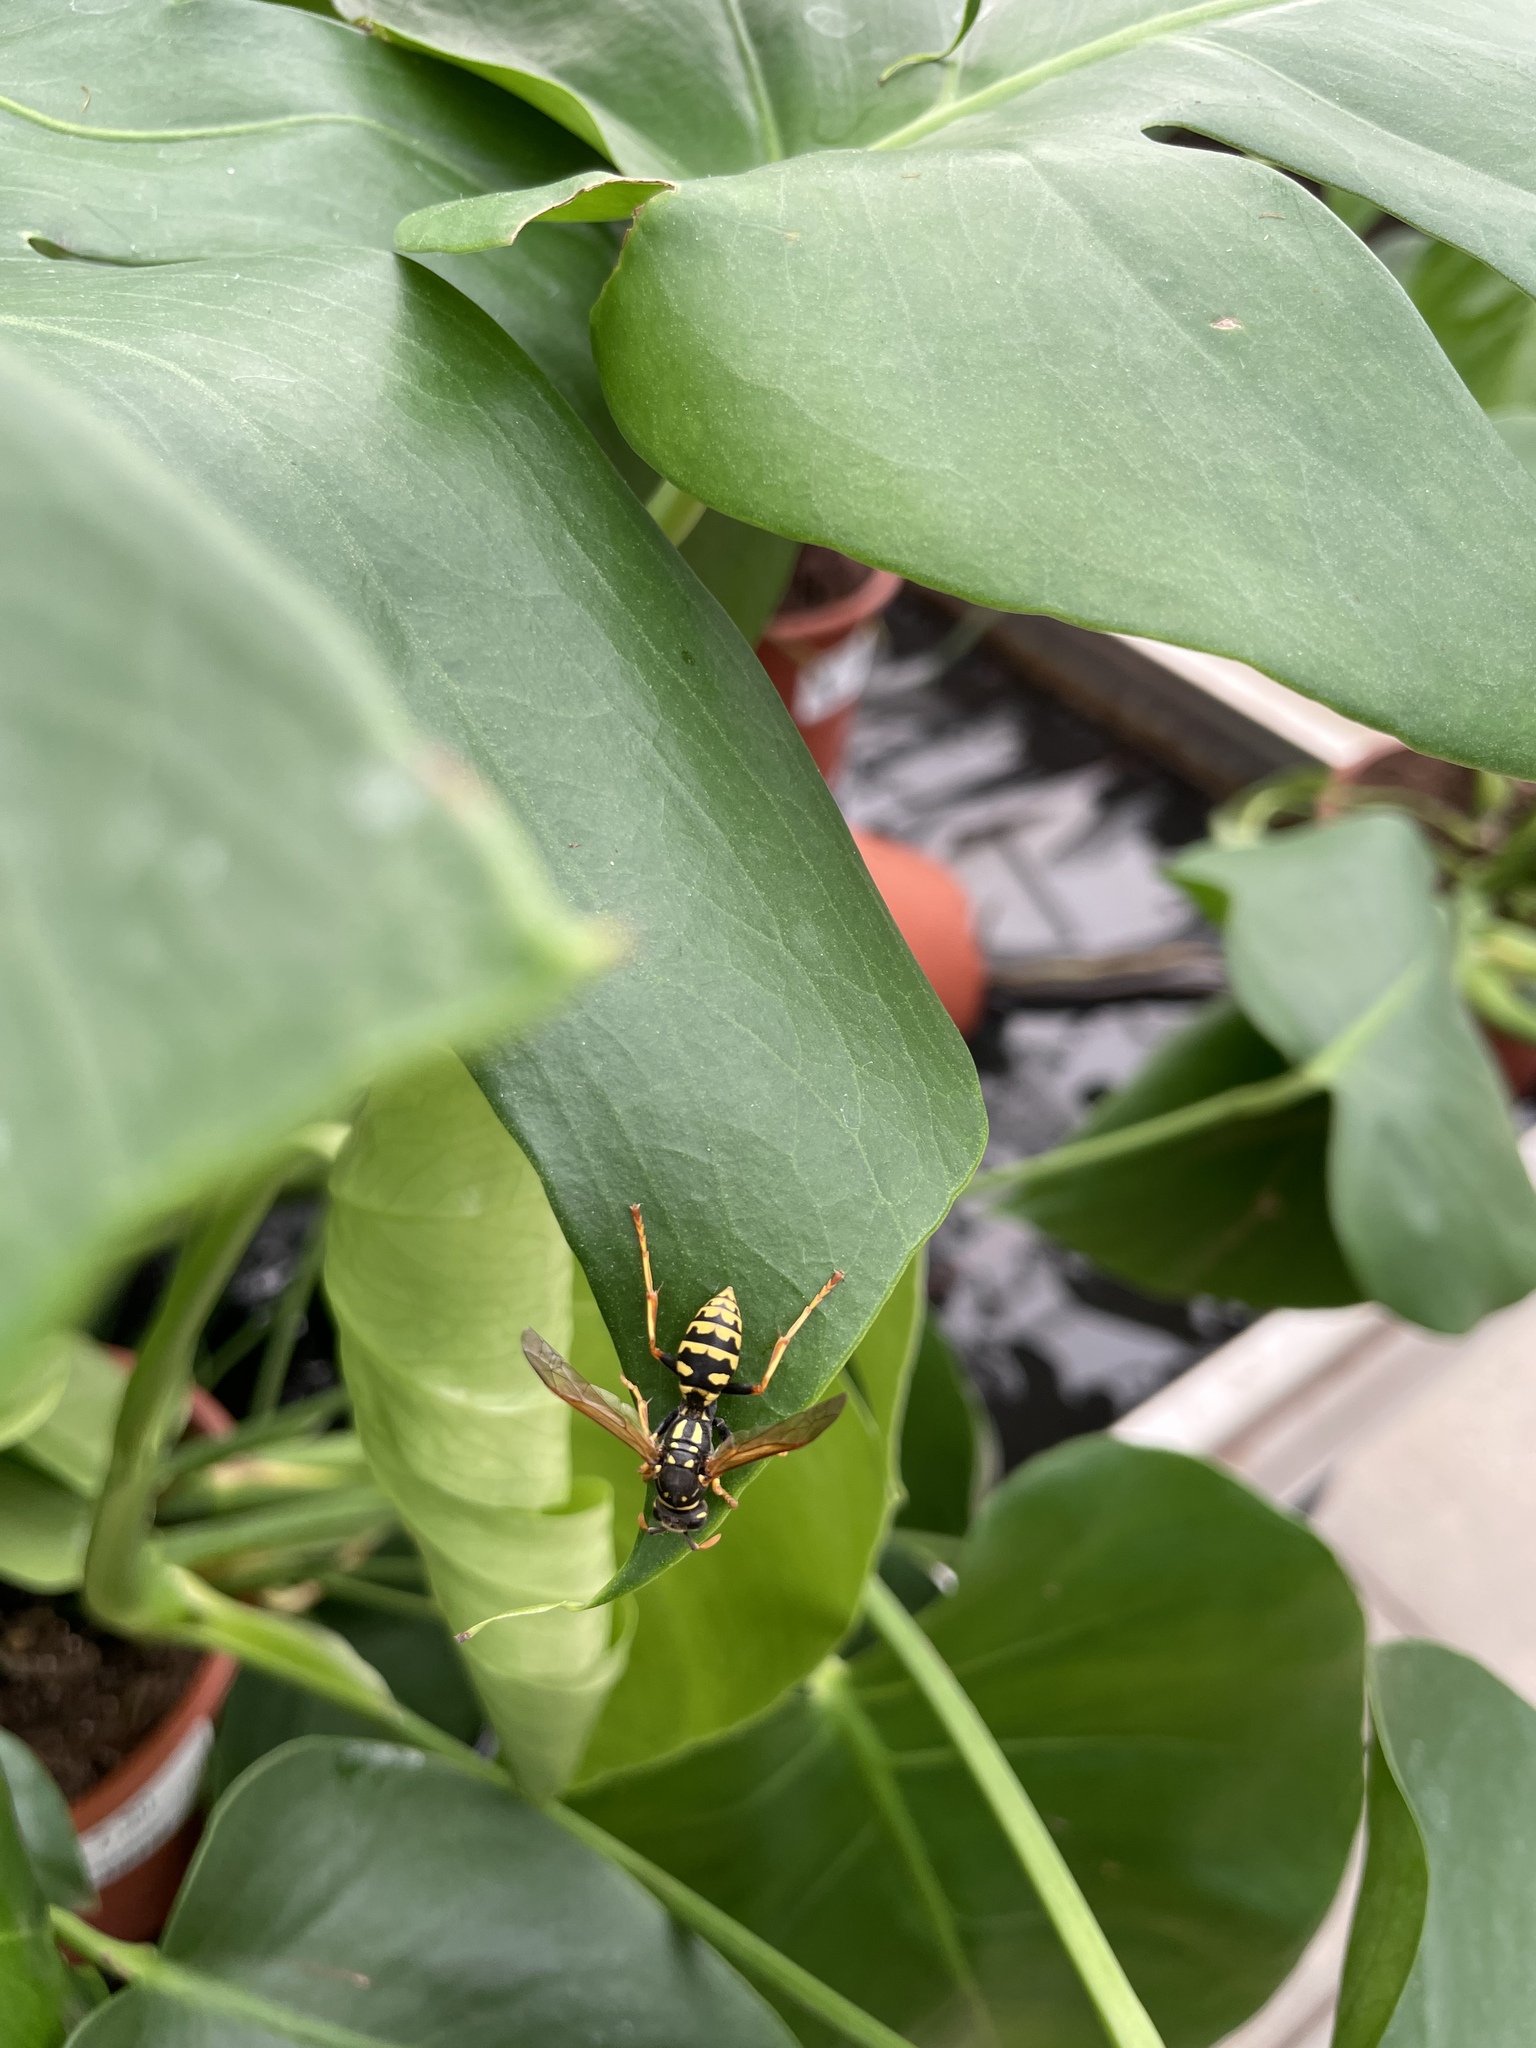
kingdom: Animalia
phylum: Arthropoda
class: Insecta
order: Hymenoptera
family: Eumenidae
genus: Polistes
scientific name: Polistes dominula
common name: Paper wasp
